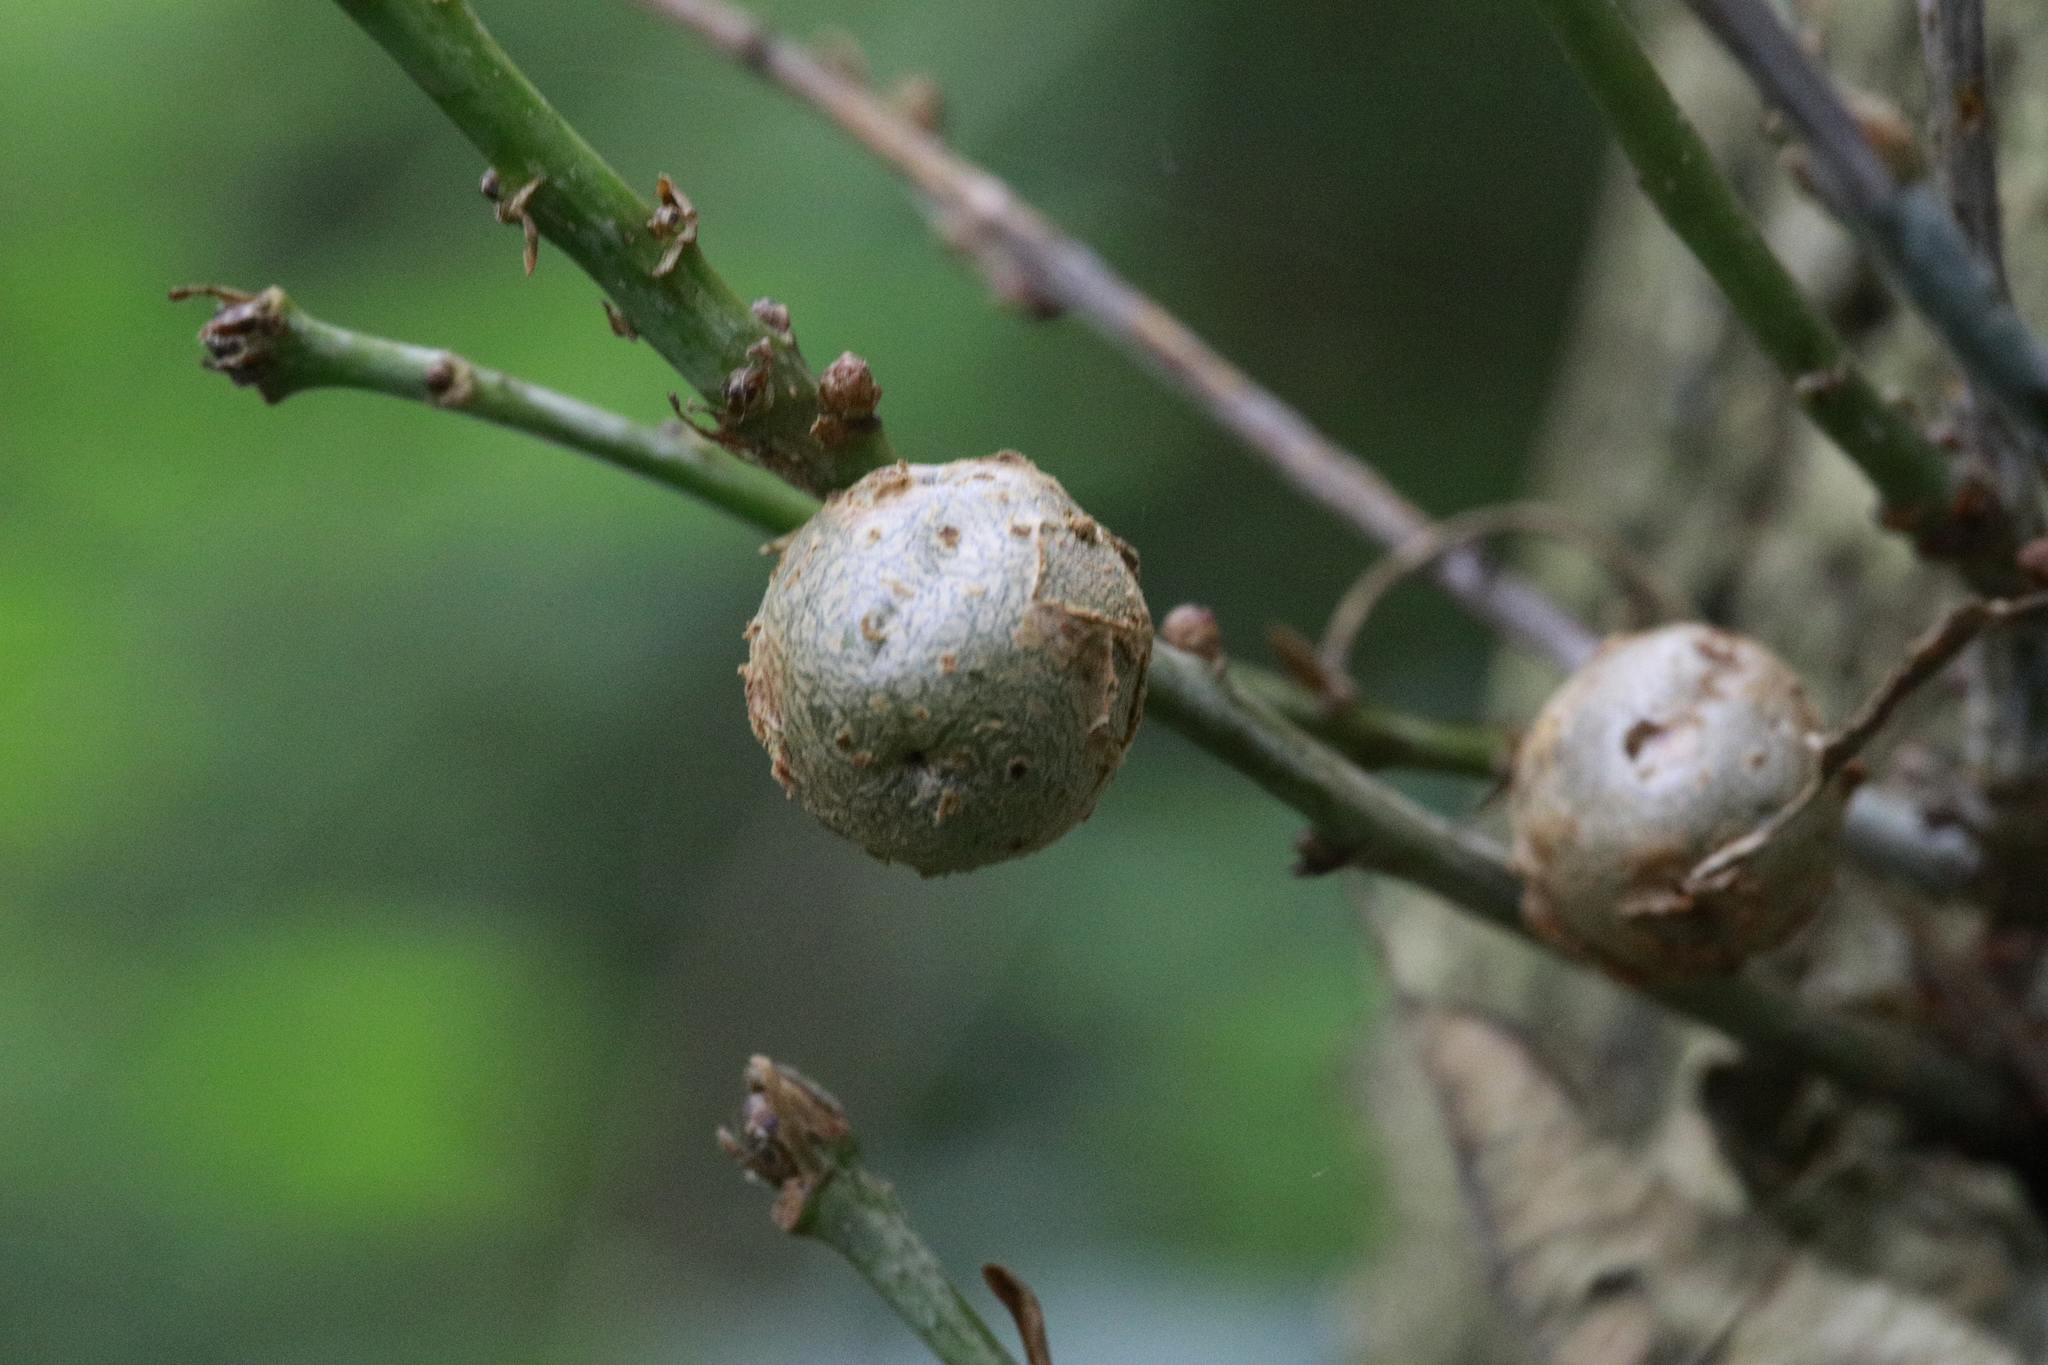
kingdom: Animalia
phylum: Arthropoda
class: Insecta
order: Hymenoptera
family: Cynipidae
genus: Andricus
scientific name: Andricus lignicolus
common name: Cola-nut gall
